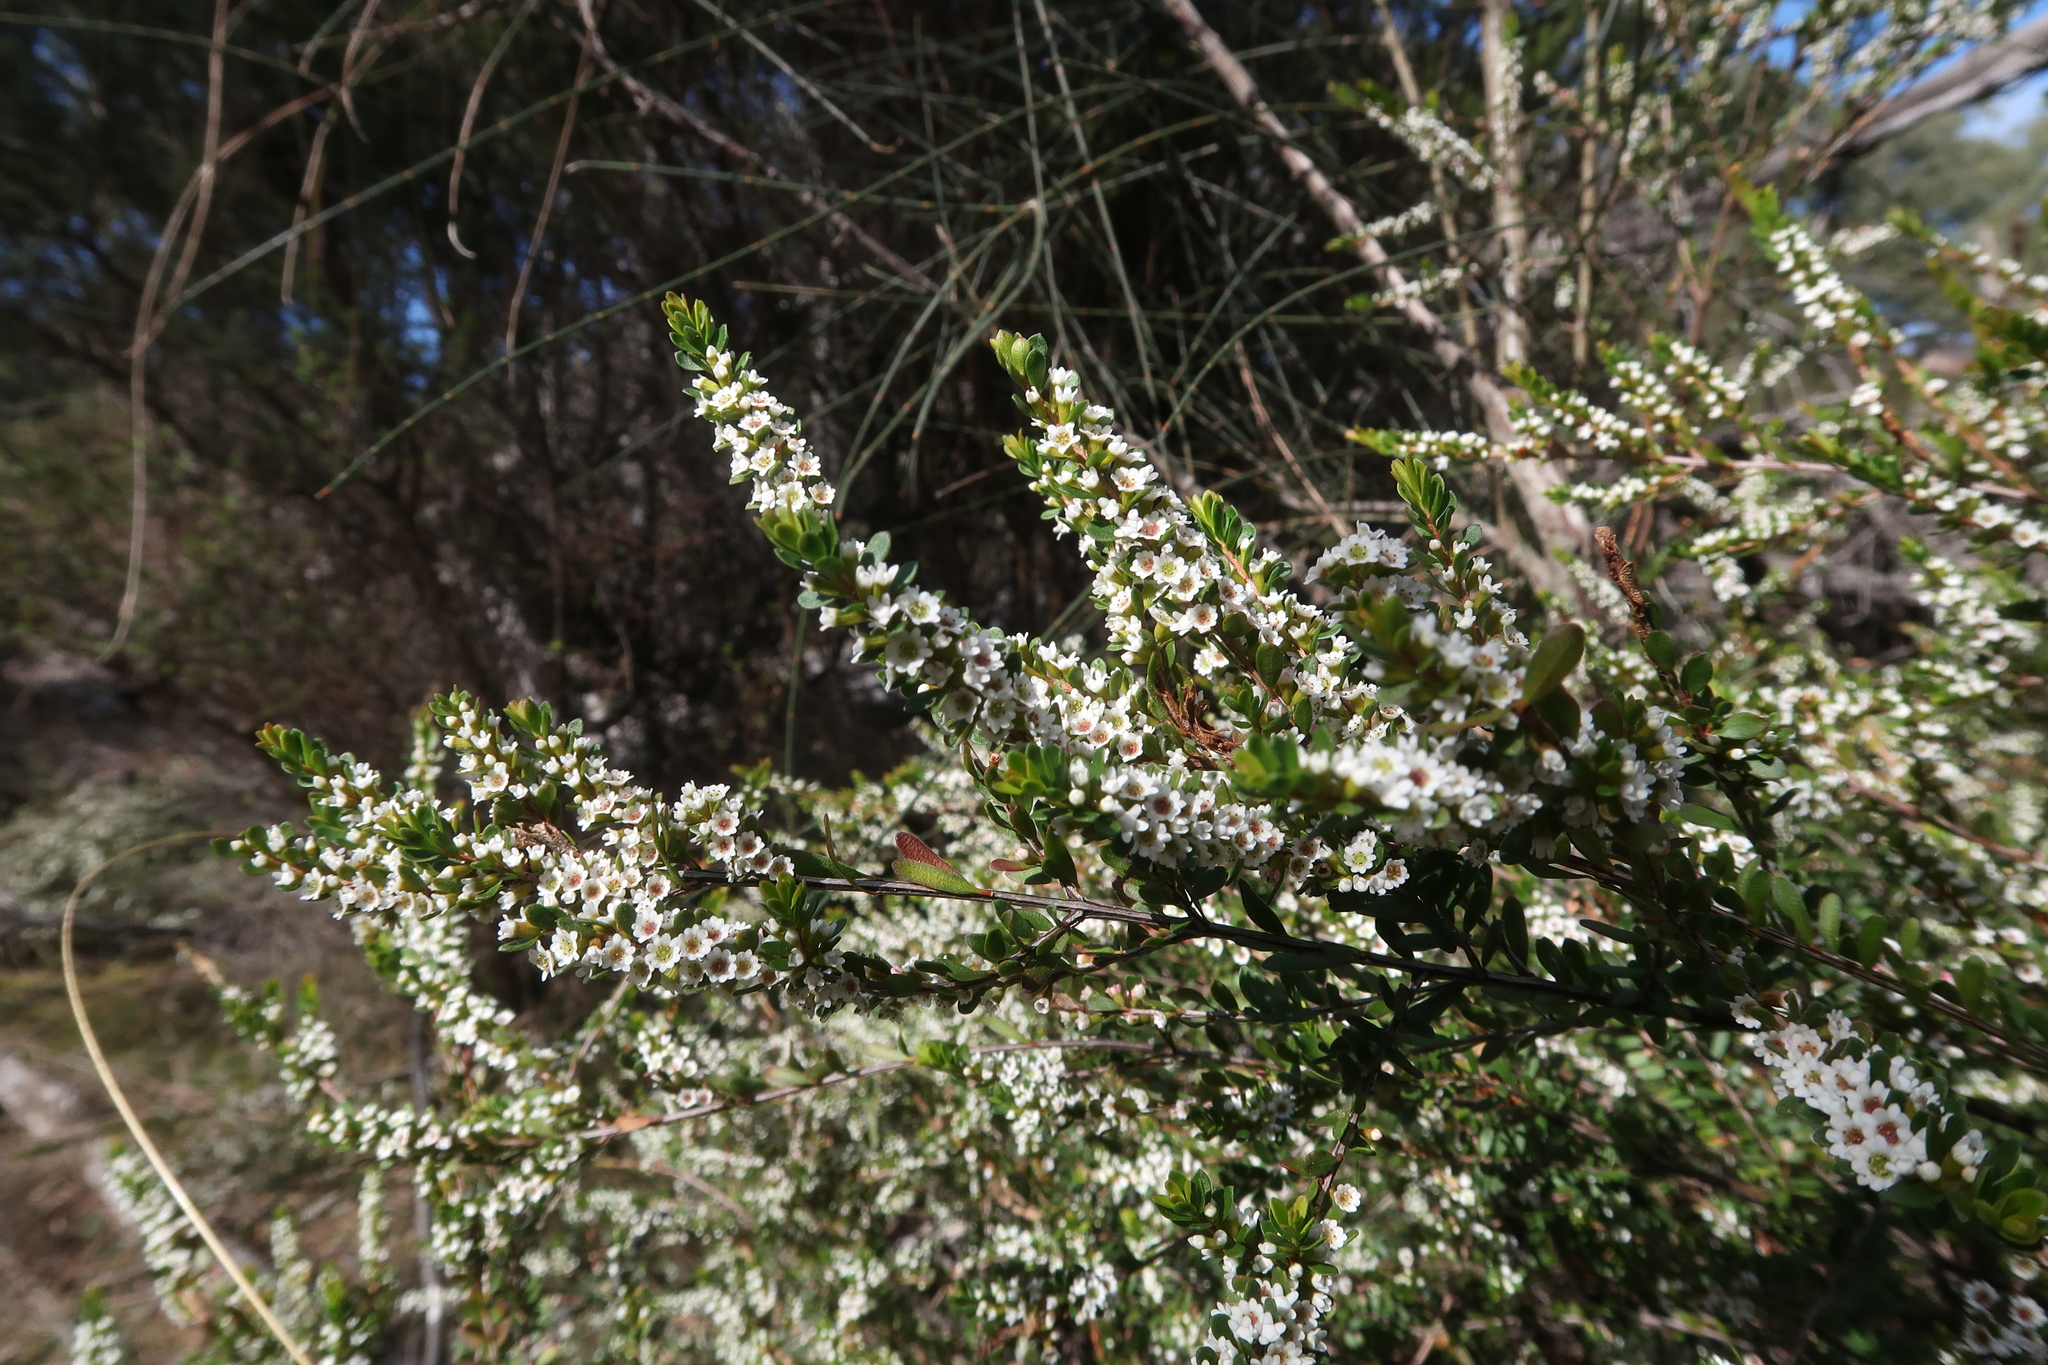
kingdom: Plantae
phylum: Tracheophyta
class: Magnoliopsida
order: Myrtales
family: Myrtaceae
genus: Thryptomene
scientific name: Thryptomene micrantha
